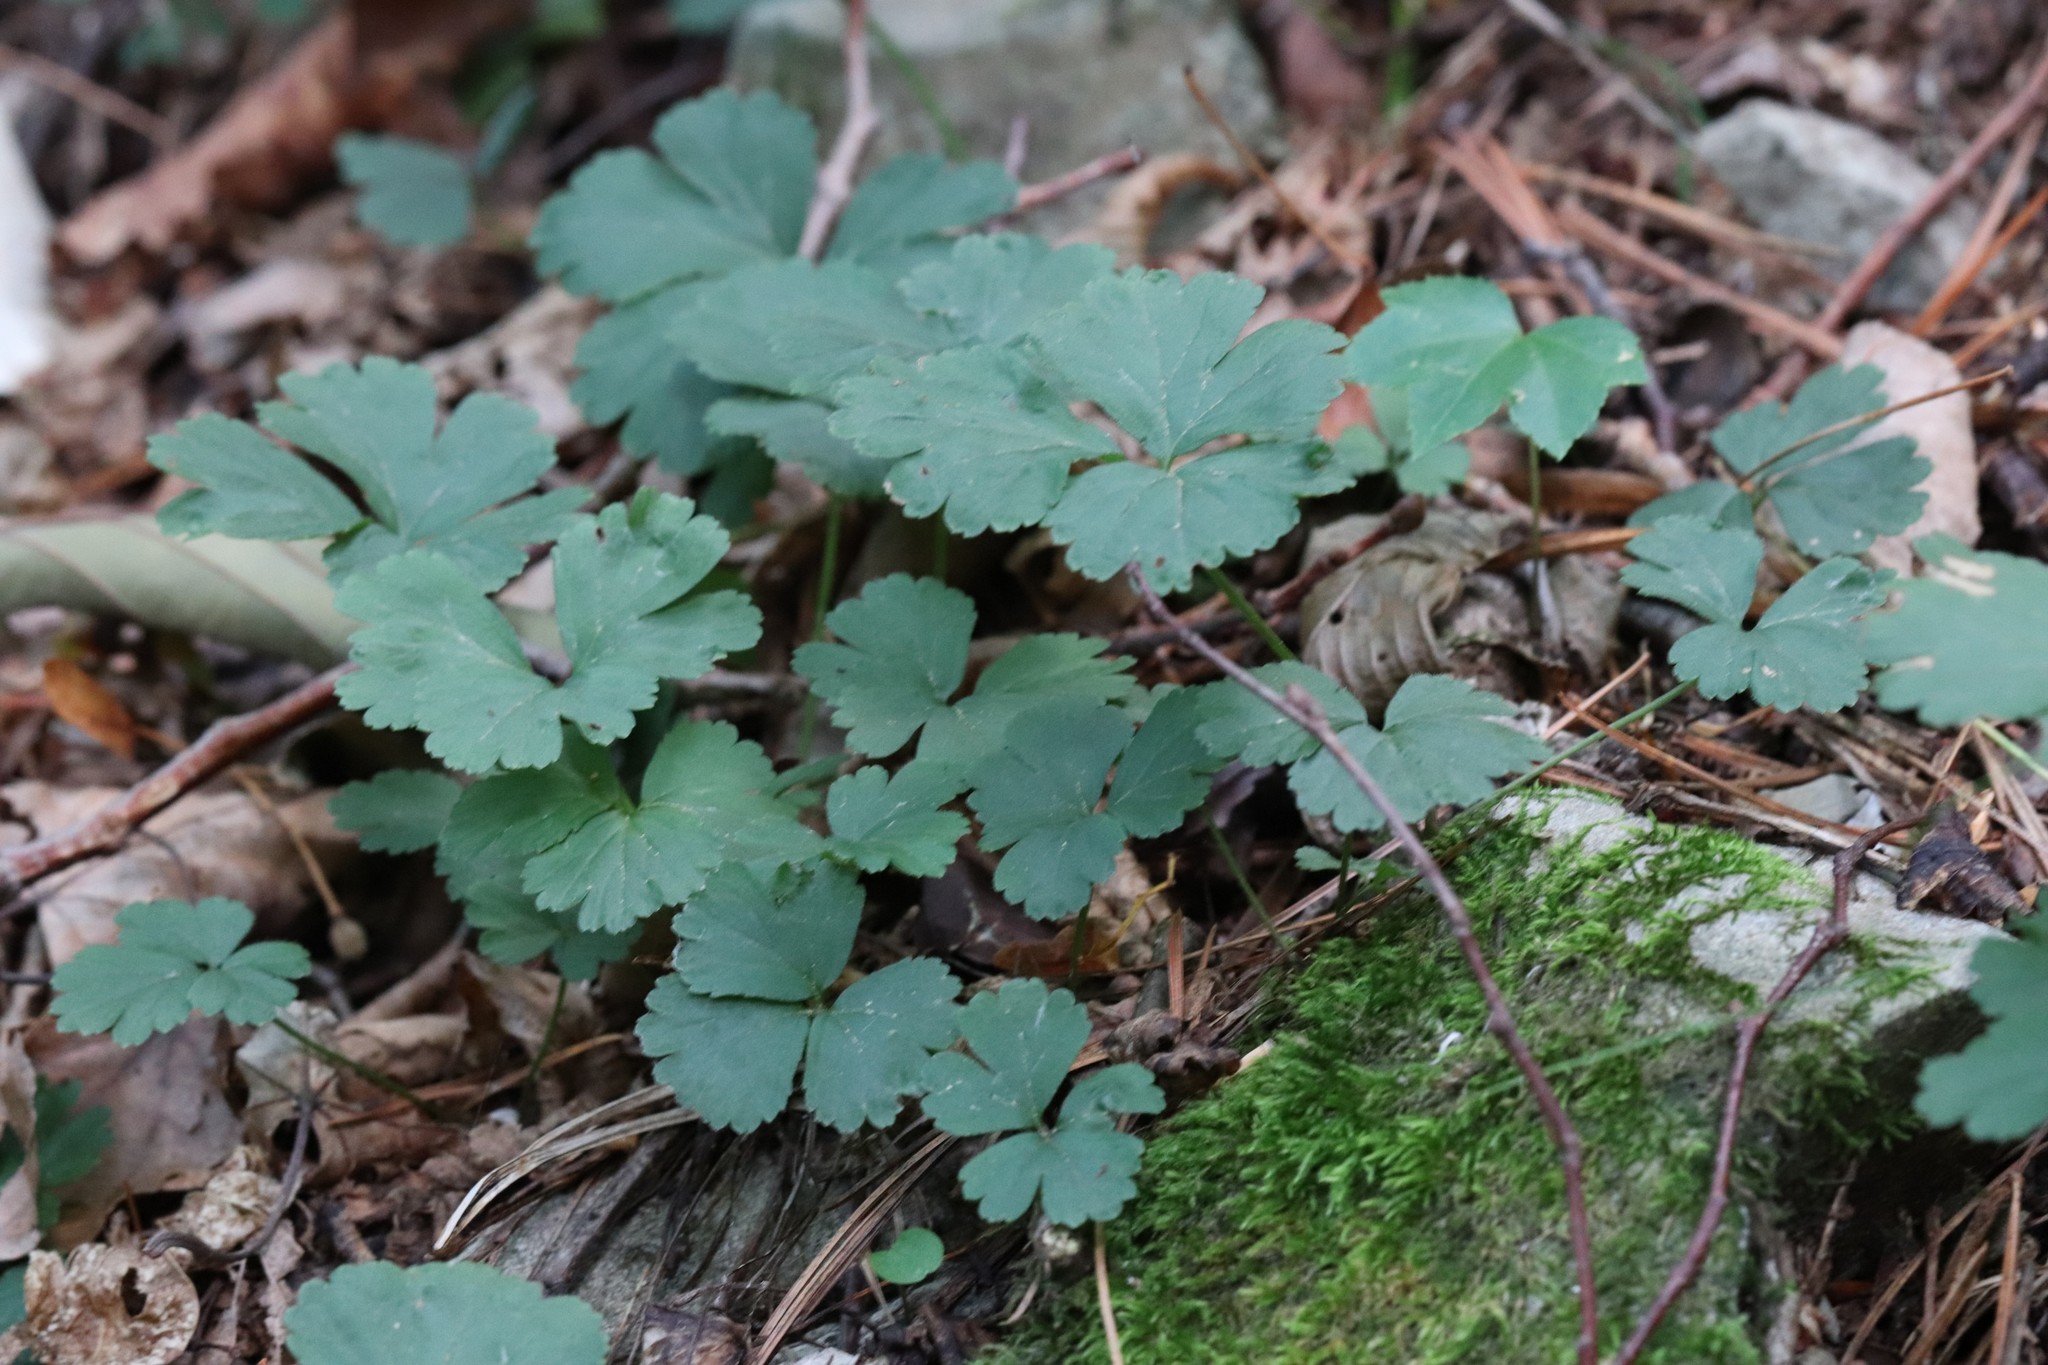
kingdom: Plantae
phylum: Tracheophyta
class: Magnoliopsida
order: Rosales
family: Rosaceae
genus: Geum
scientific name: Geum ternatum
